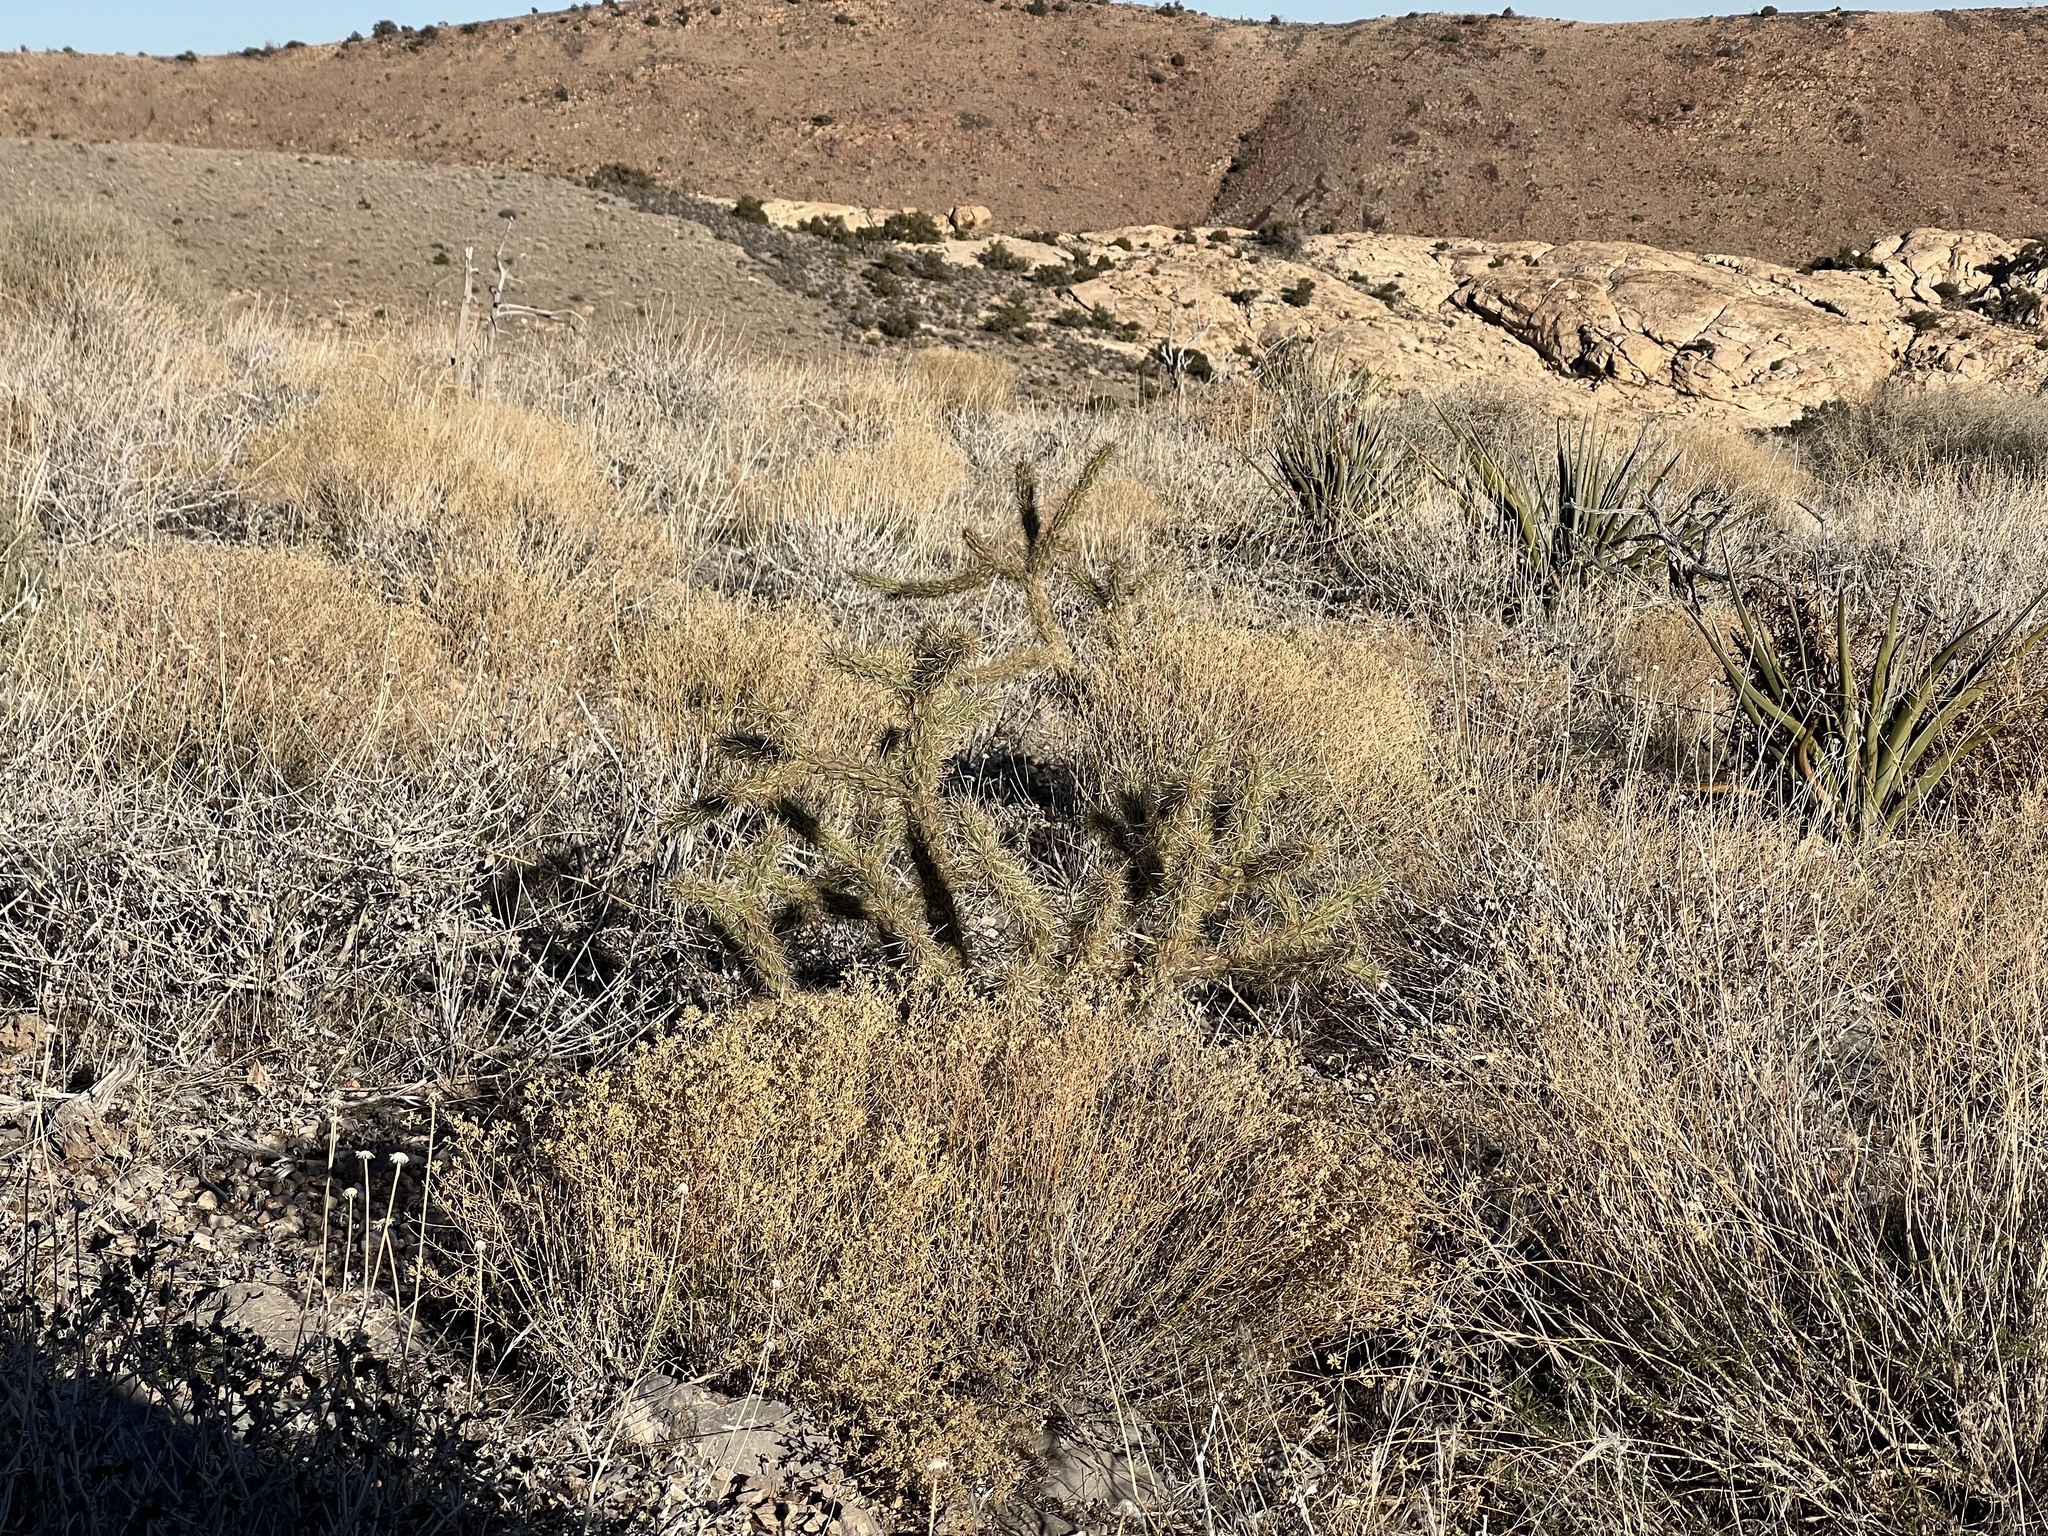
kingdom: Plantae
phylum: Tracheophyta
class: Magnoliopsida
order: Caryophyllales
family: Cactaceae
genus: Cylindropuntia
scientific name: Cylindropuntia acanthocarpa
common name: Buckhorn cholla
